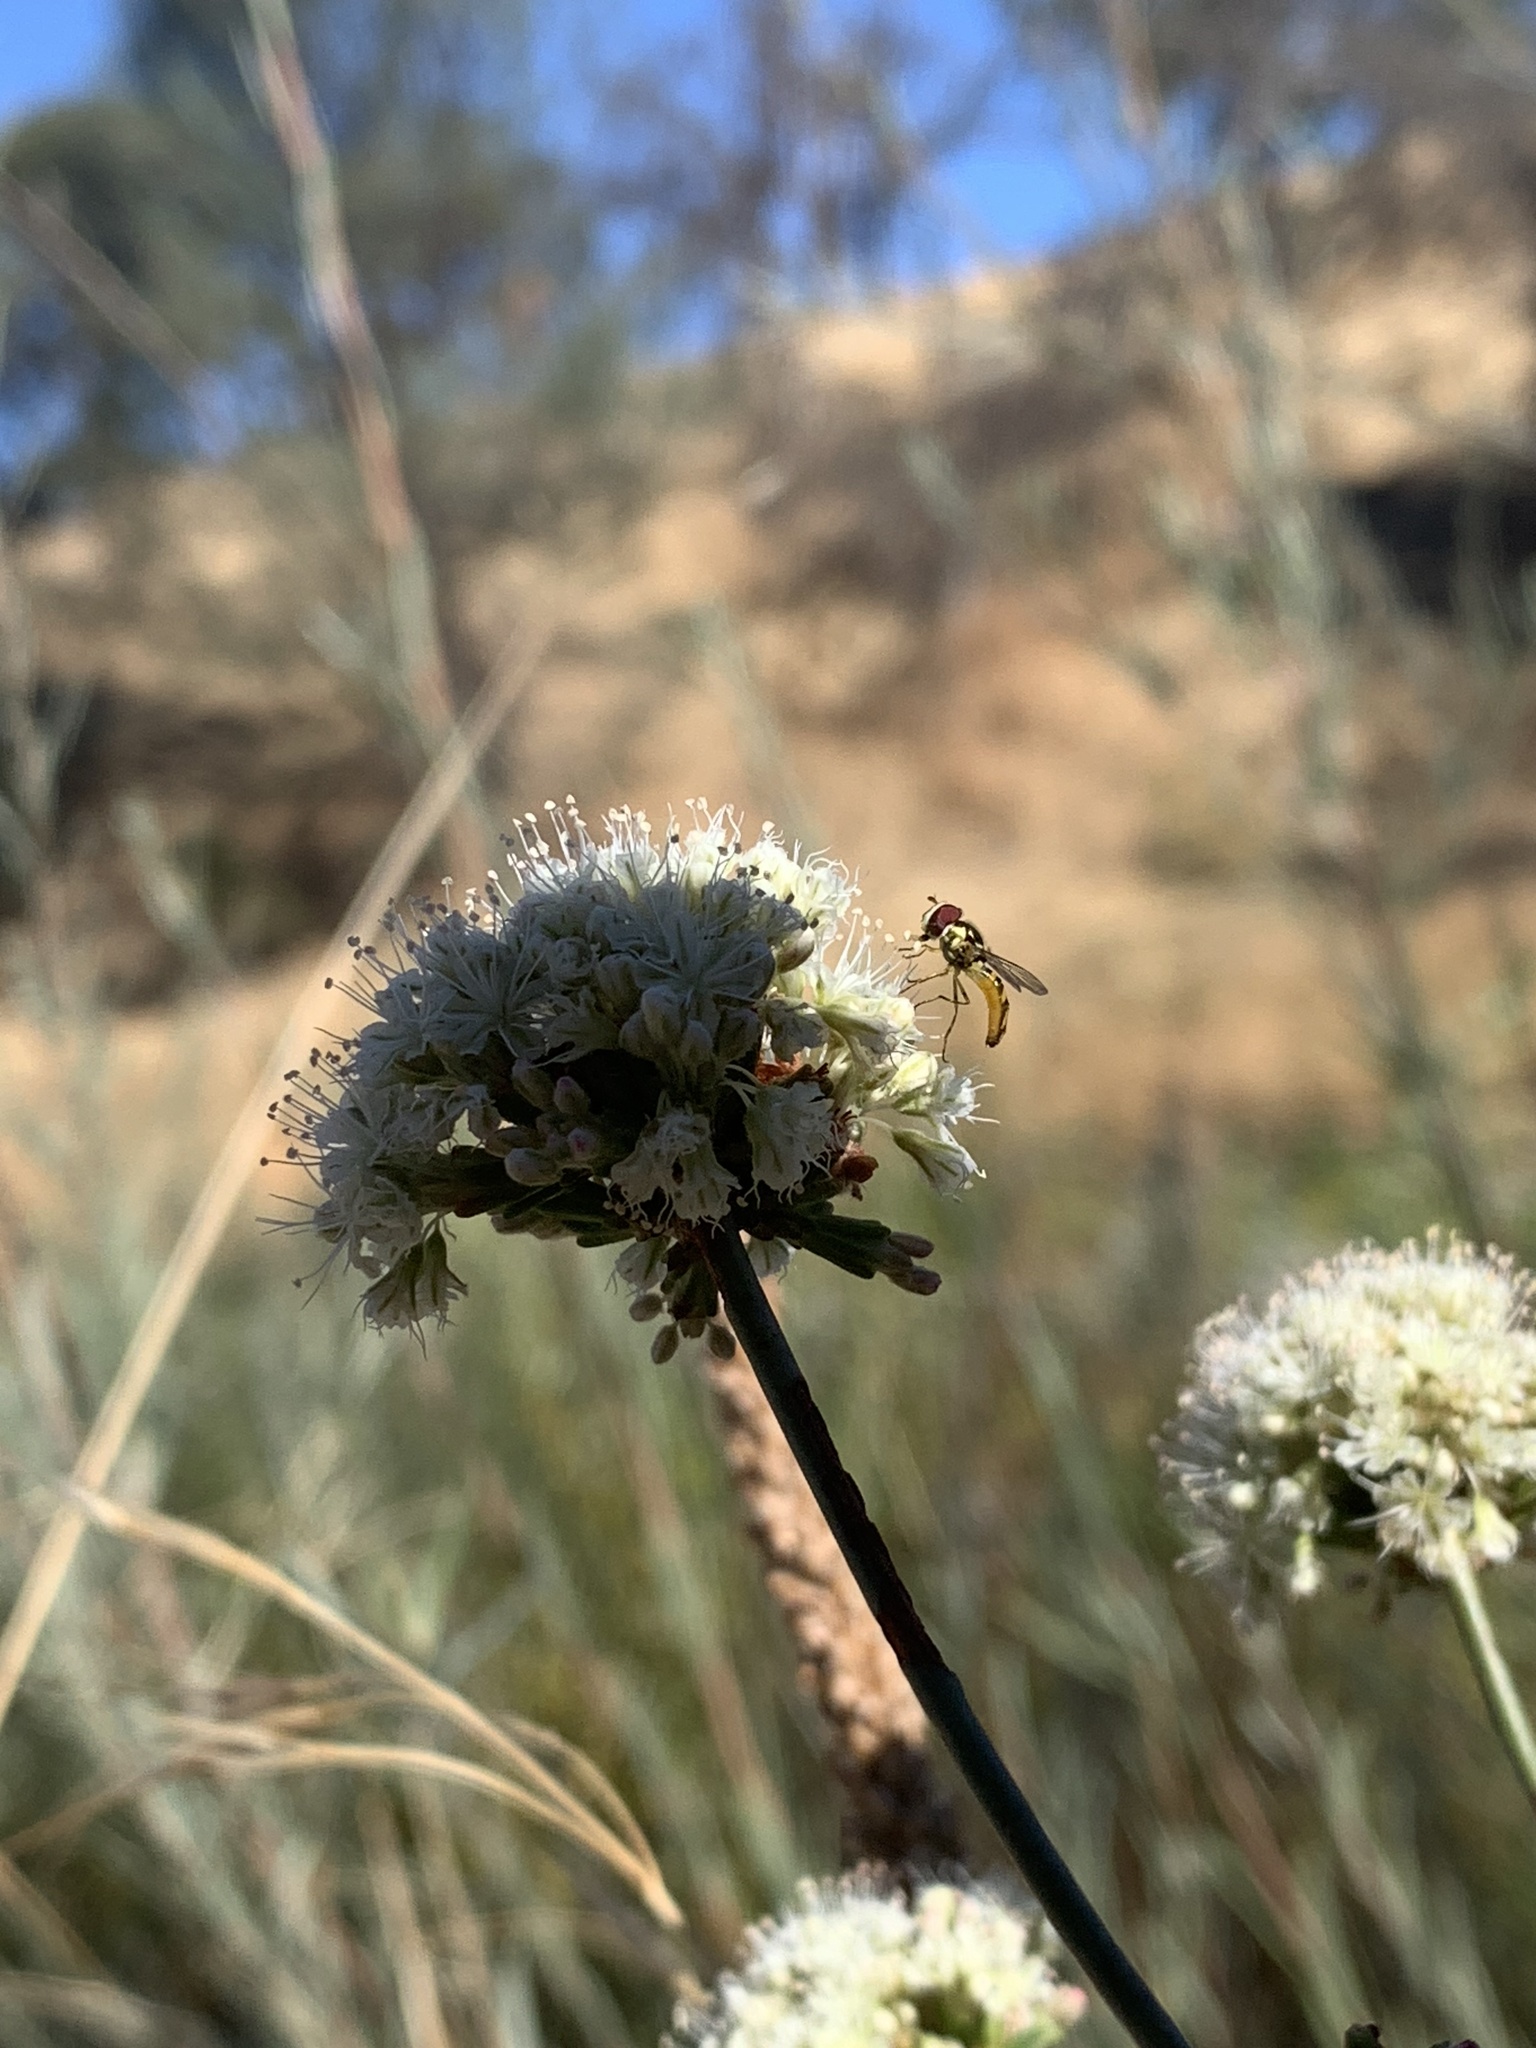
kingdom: Animalia
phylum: Arthropoda
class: Insecta
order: Diptera
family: Syrphidae
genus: Allograpta
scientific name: Allograpta obliqua
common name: Common oblique syrphid
